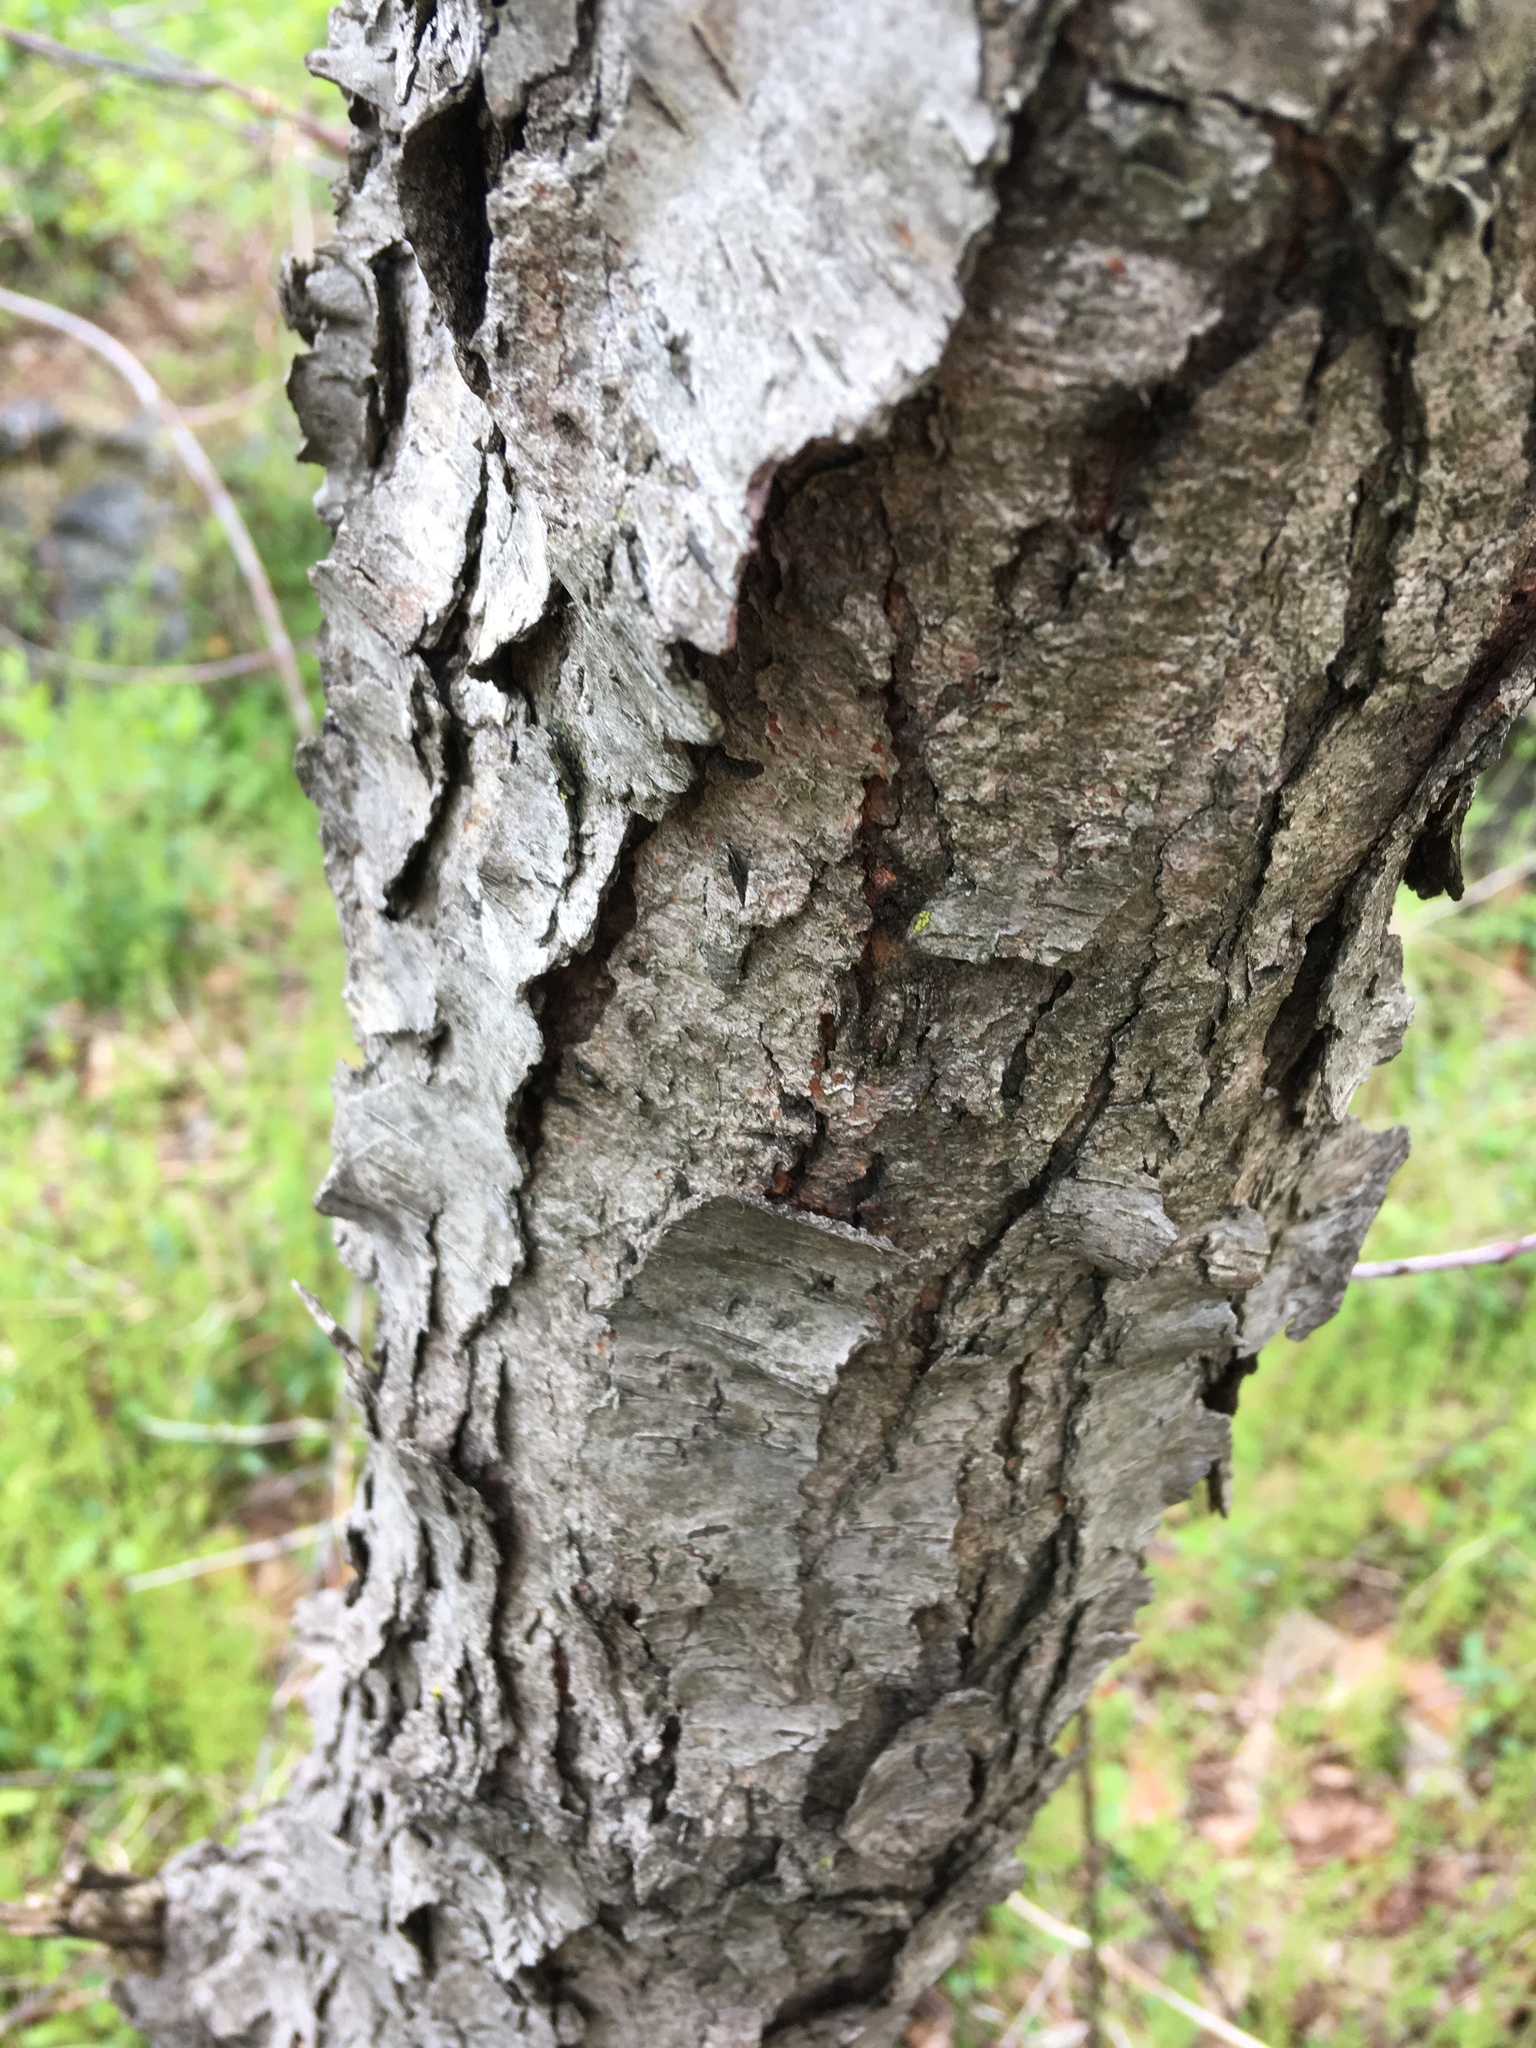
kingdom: Plantae
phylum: Tracheophyta
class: Magnoliopsida
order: Rosales
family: Rosaceae
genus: Prunus
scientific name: Prunus serotina
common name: Black cherry
